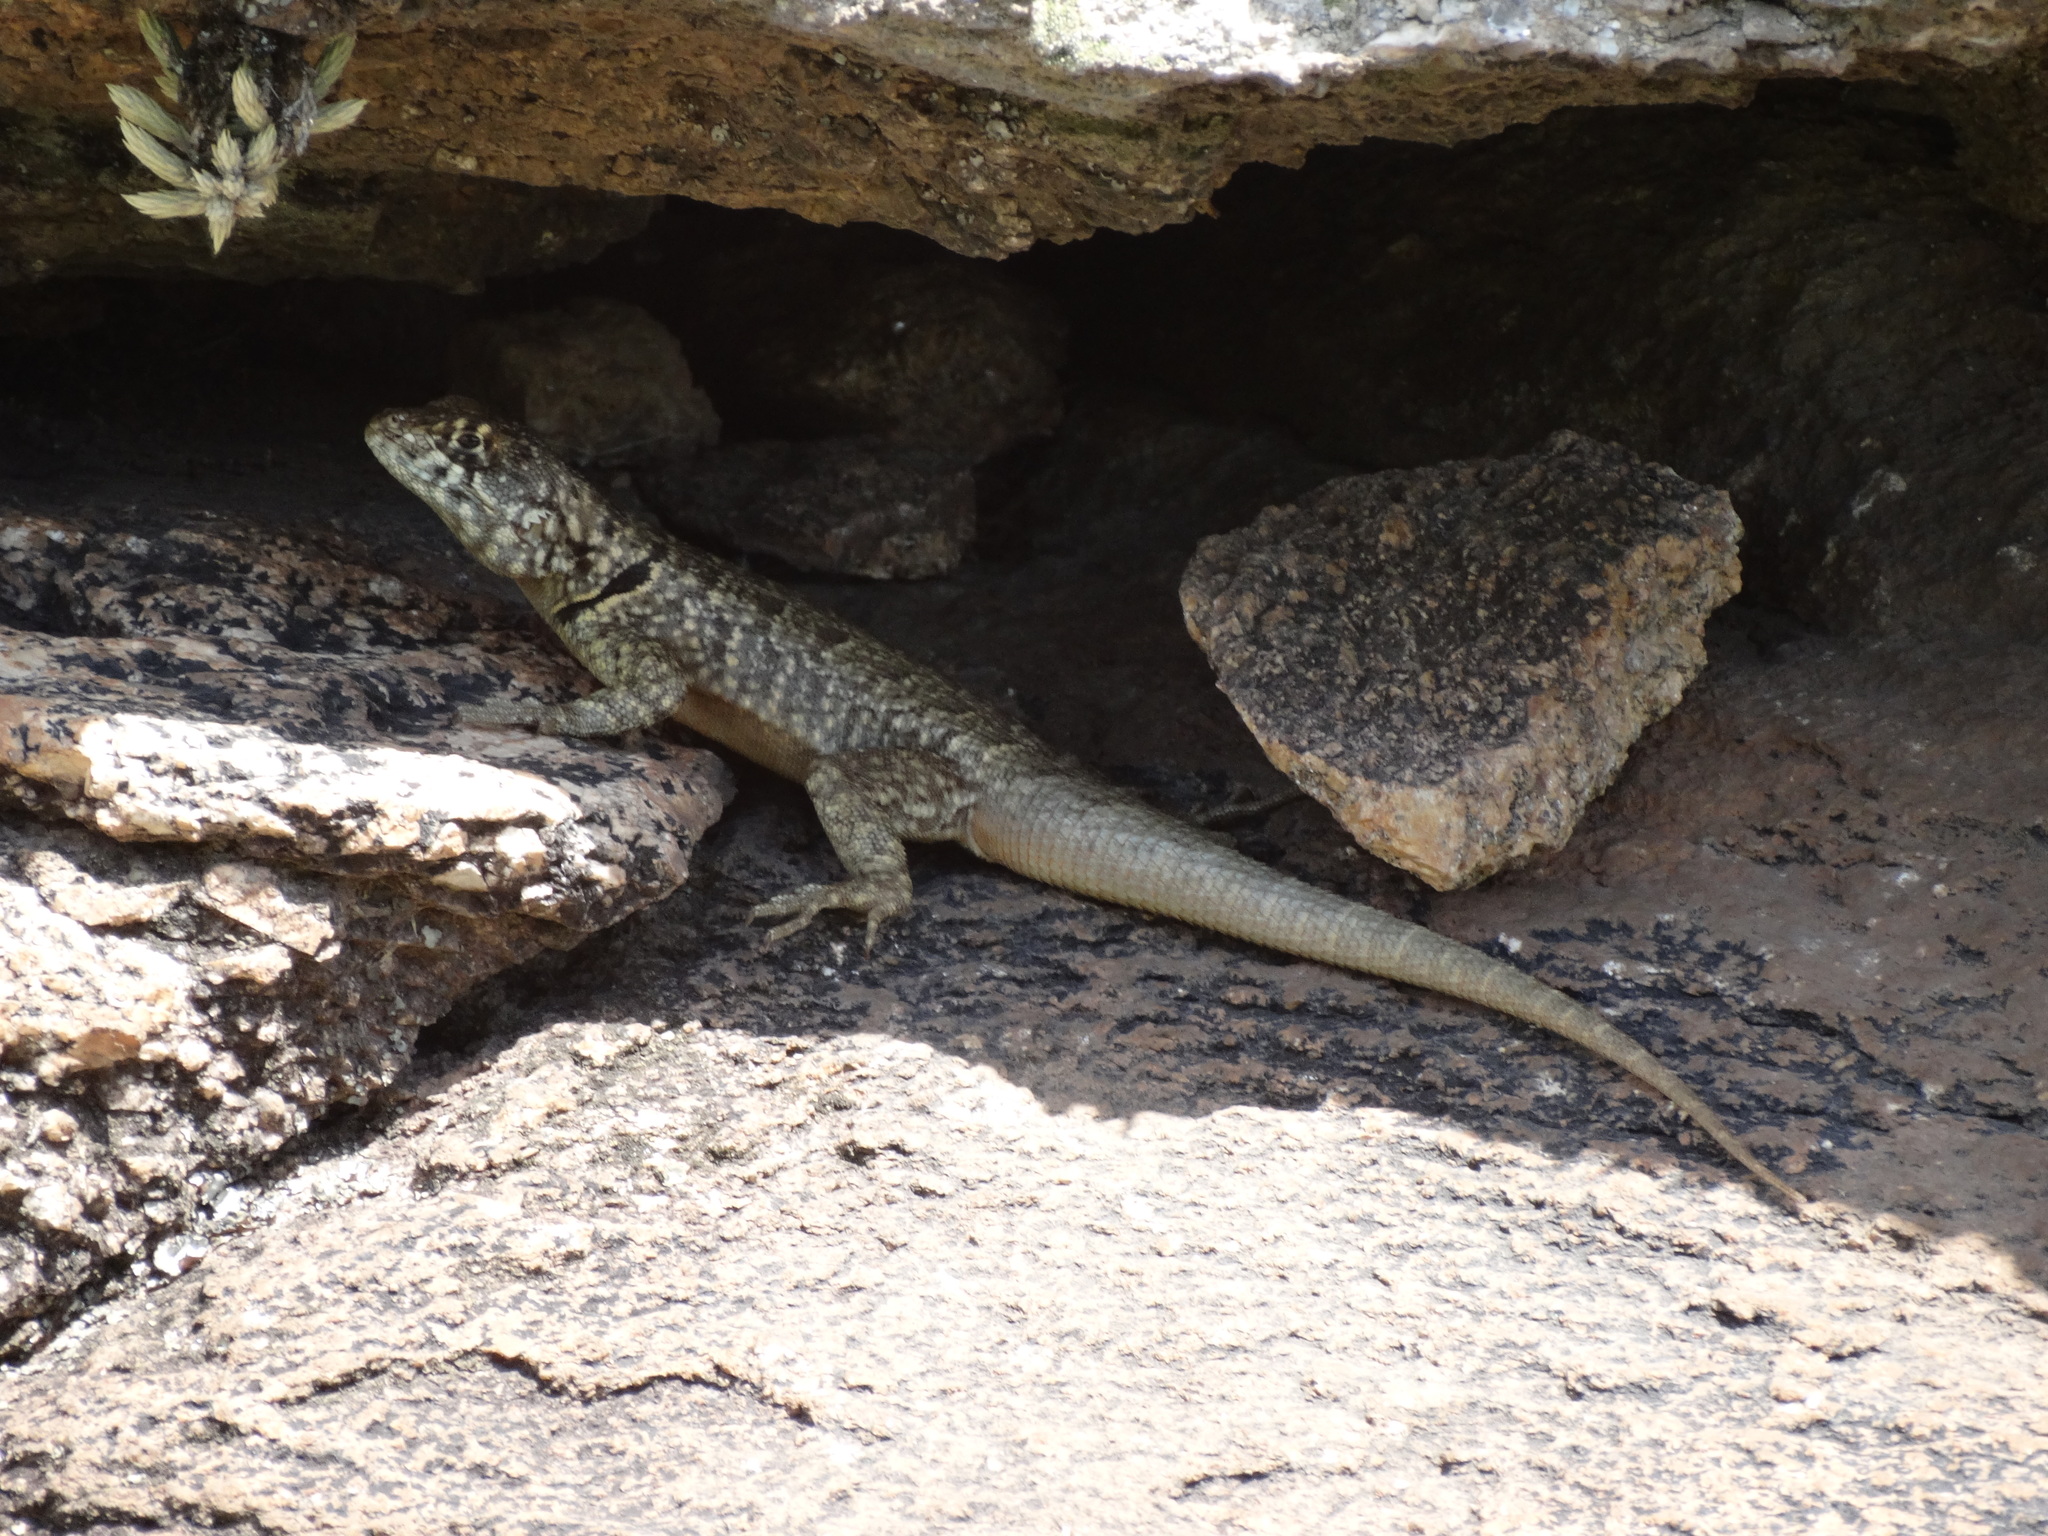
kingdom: Animalia
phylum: Chordata
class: Squamata
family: Tropiduridae
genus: Tropidurus
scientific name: Tropidurus etheridgei
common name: Etheridge's lava lizard
